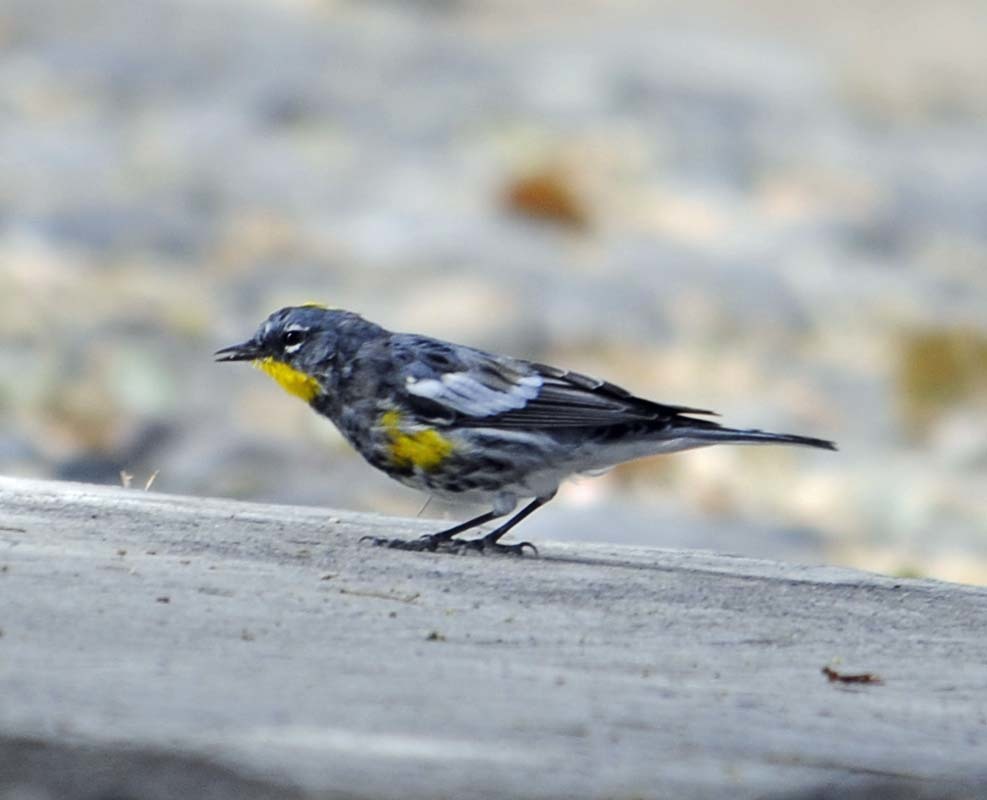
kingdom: Animalia
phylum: Chordata
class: Aves
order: Passeriformes
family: Parulidae
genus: Setophaga
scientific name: Setophaga auduboni
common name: Audubon's warbler
